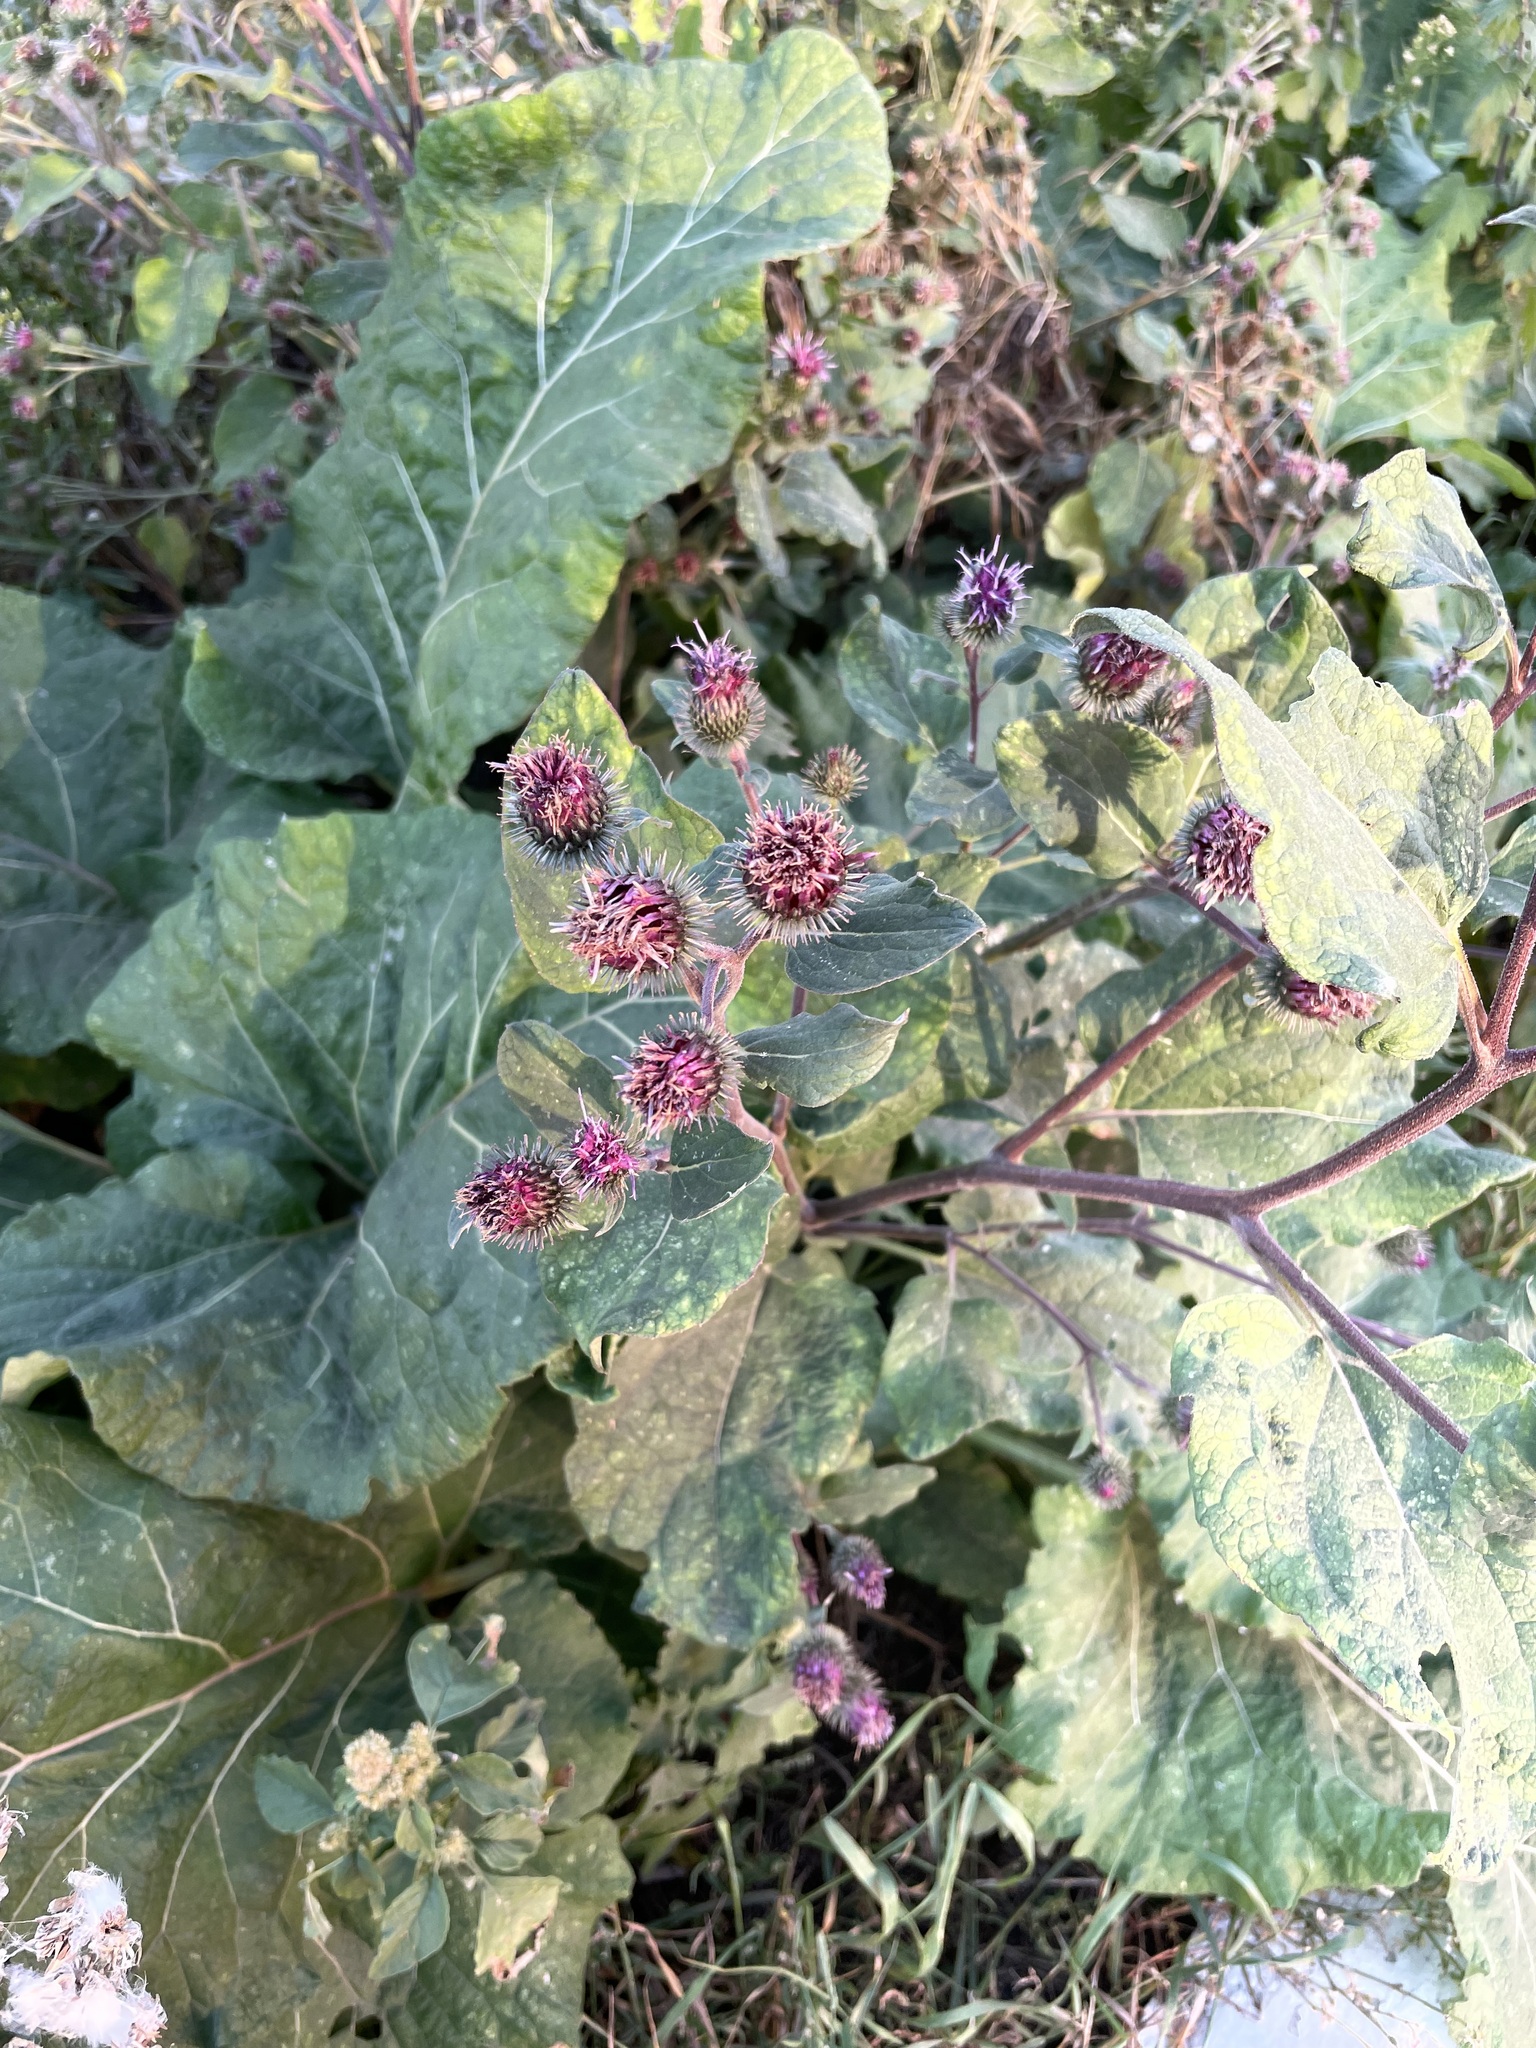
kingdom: Plantae
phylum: Tracheophyta
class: Magnoliopsida
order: Asterales
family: Asteraceae
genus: Arctium
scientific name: Arctium tomentosum
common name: Woolly burdock
